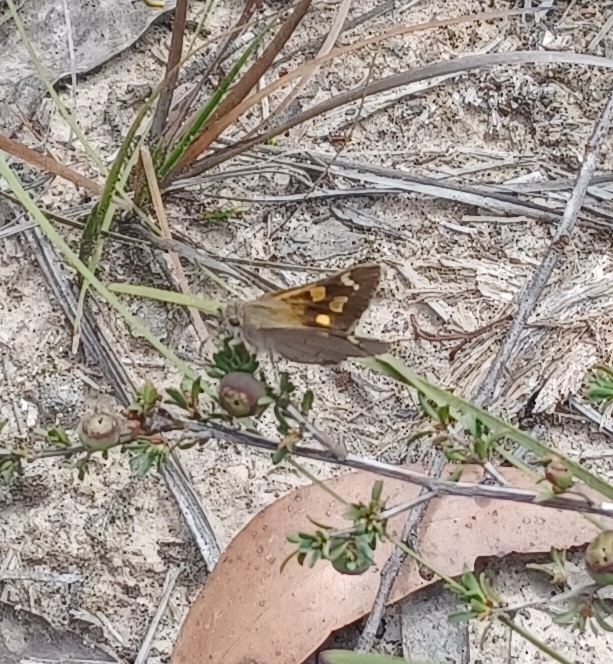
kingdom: Animalia
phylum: Arthropoda
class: Insecta
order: Lepidoptera
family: Hesperiidae
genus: Hesperilla
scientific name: Hesperilla donnysa
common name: Varied sedge-skipper
